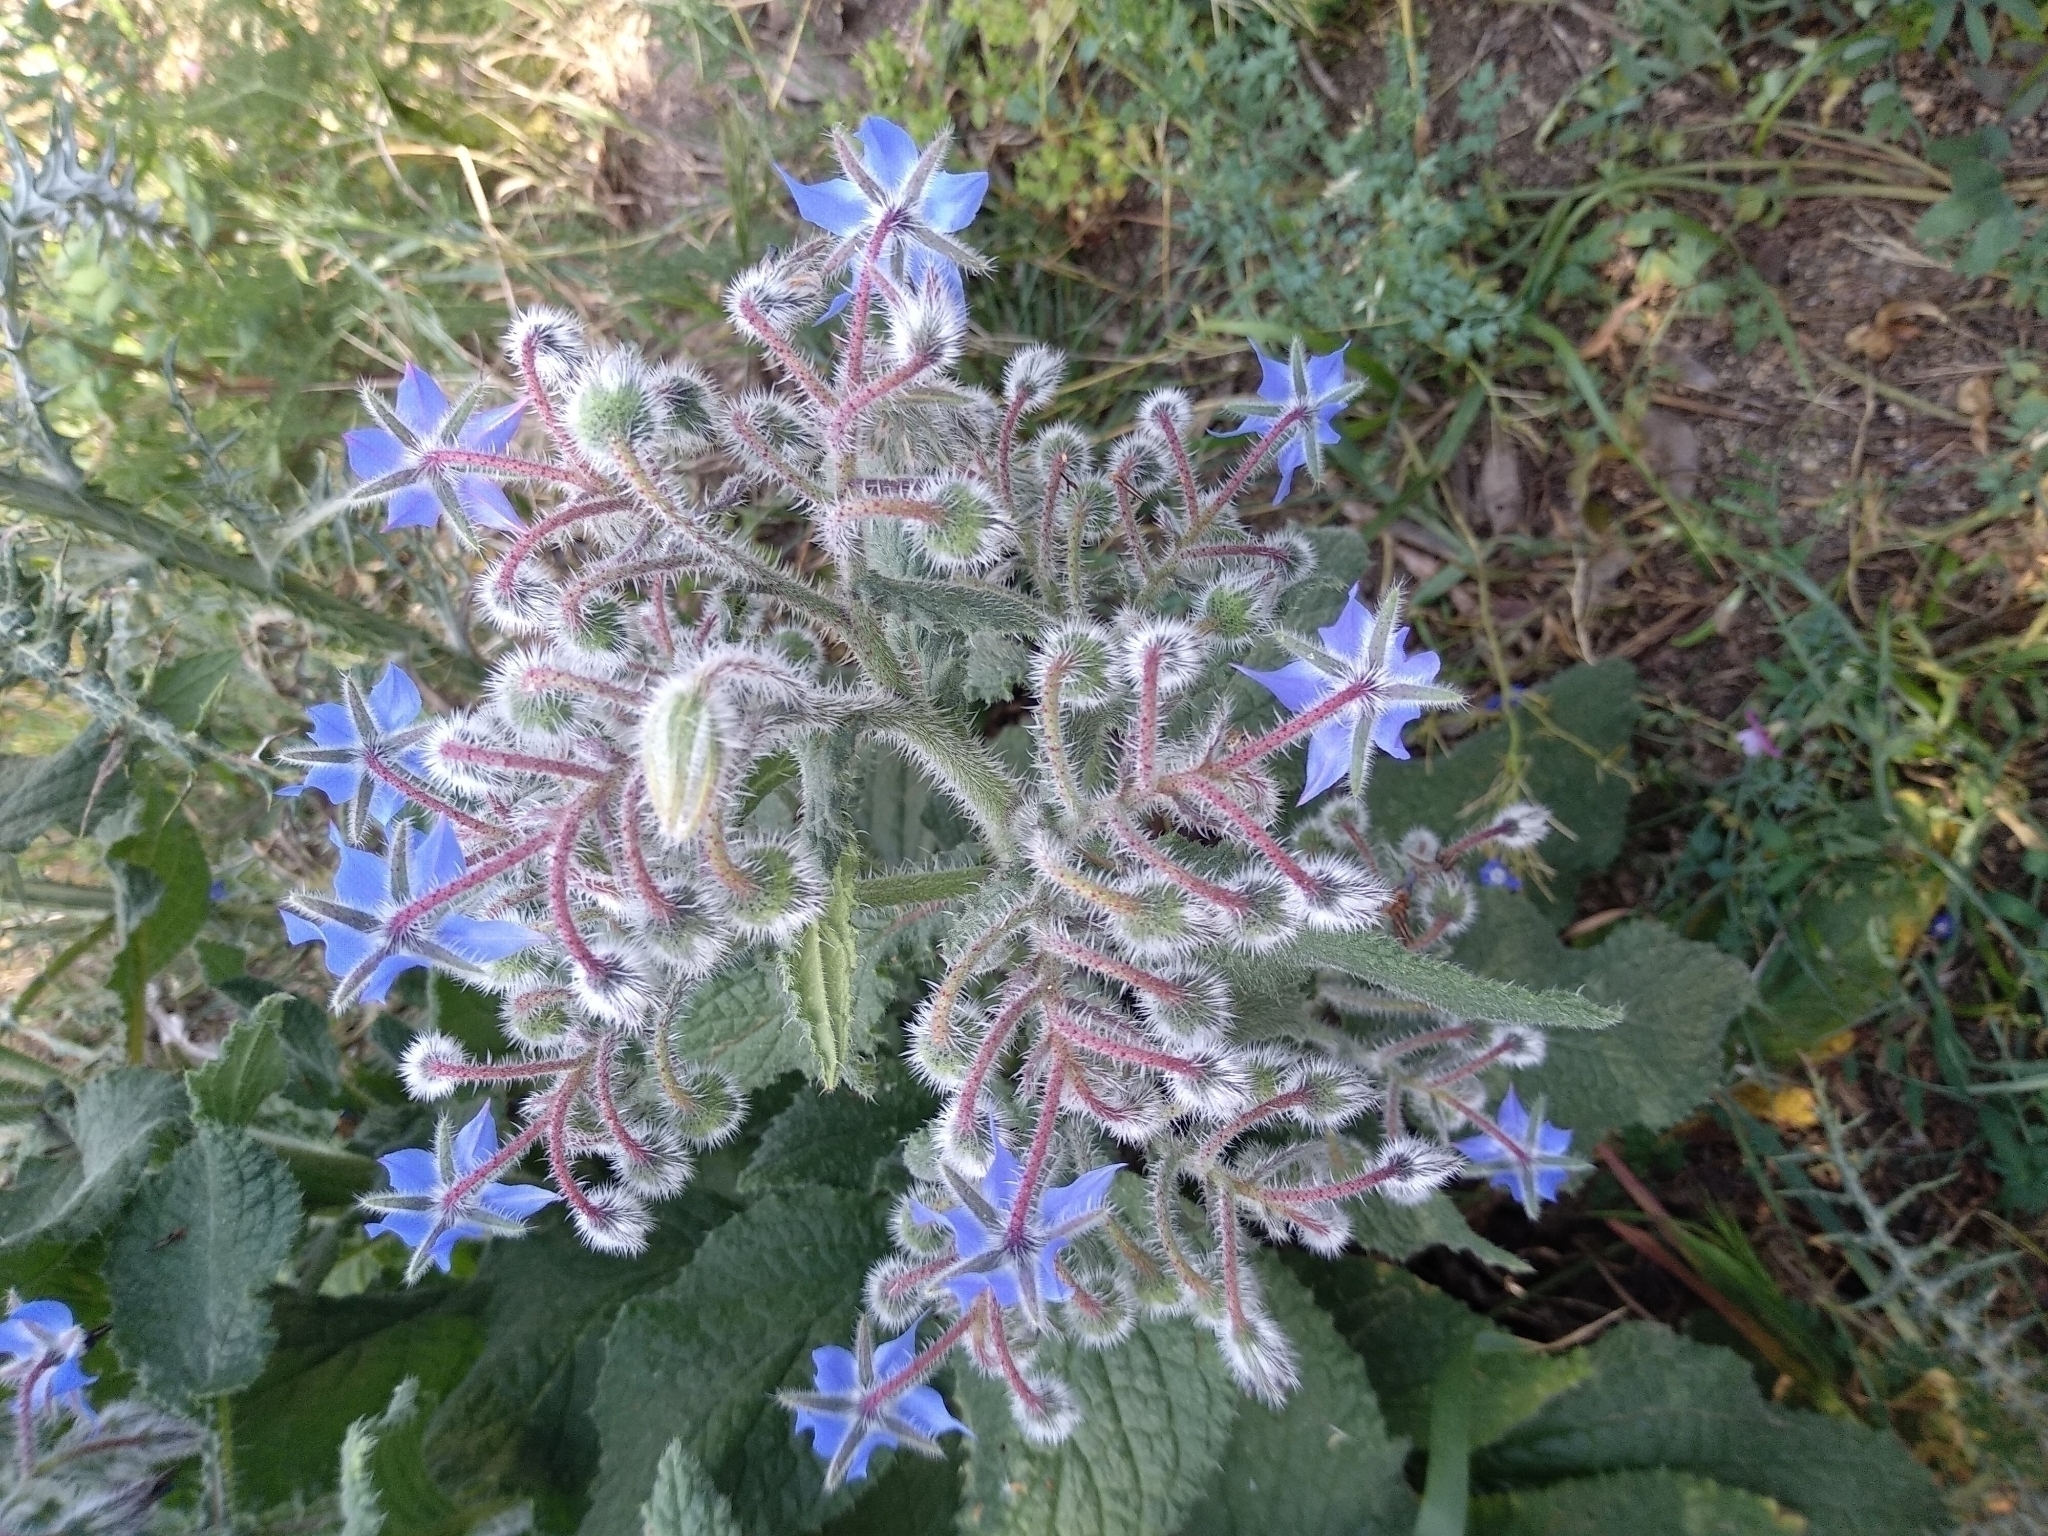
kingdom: Plantae
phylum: Tracheophyta
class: Magnoliopsida
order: Boraginales
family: Boraginaceae
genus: Borago
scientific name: Borago officinalis
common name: Borage
